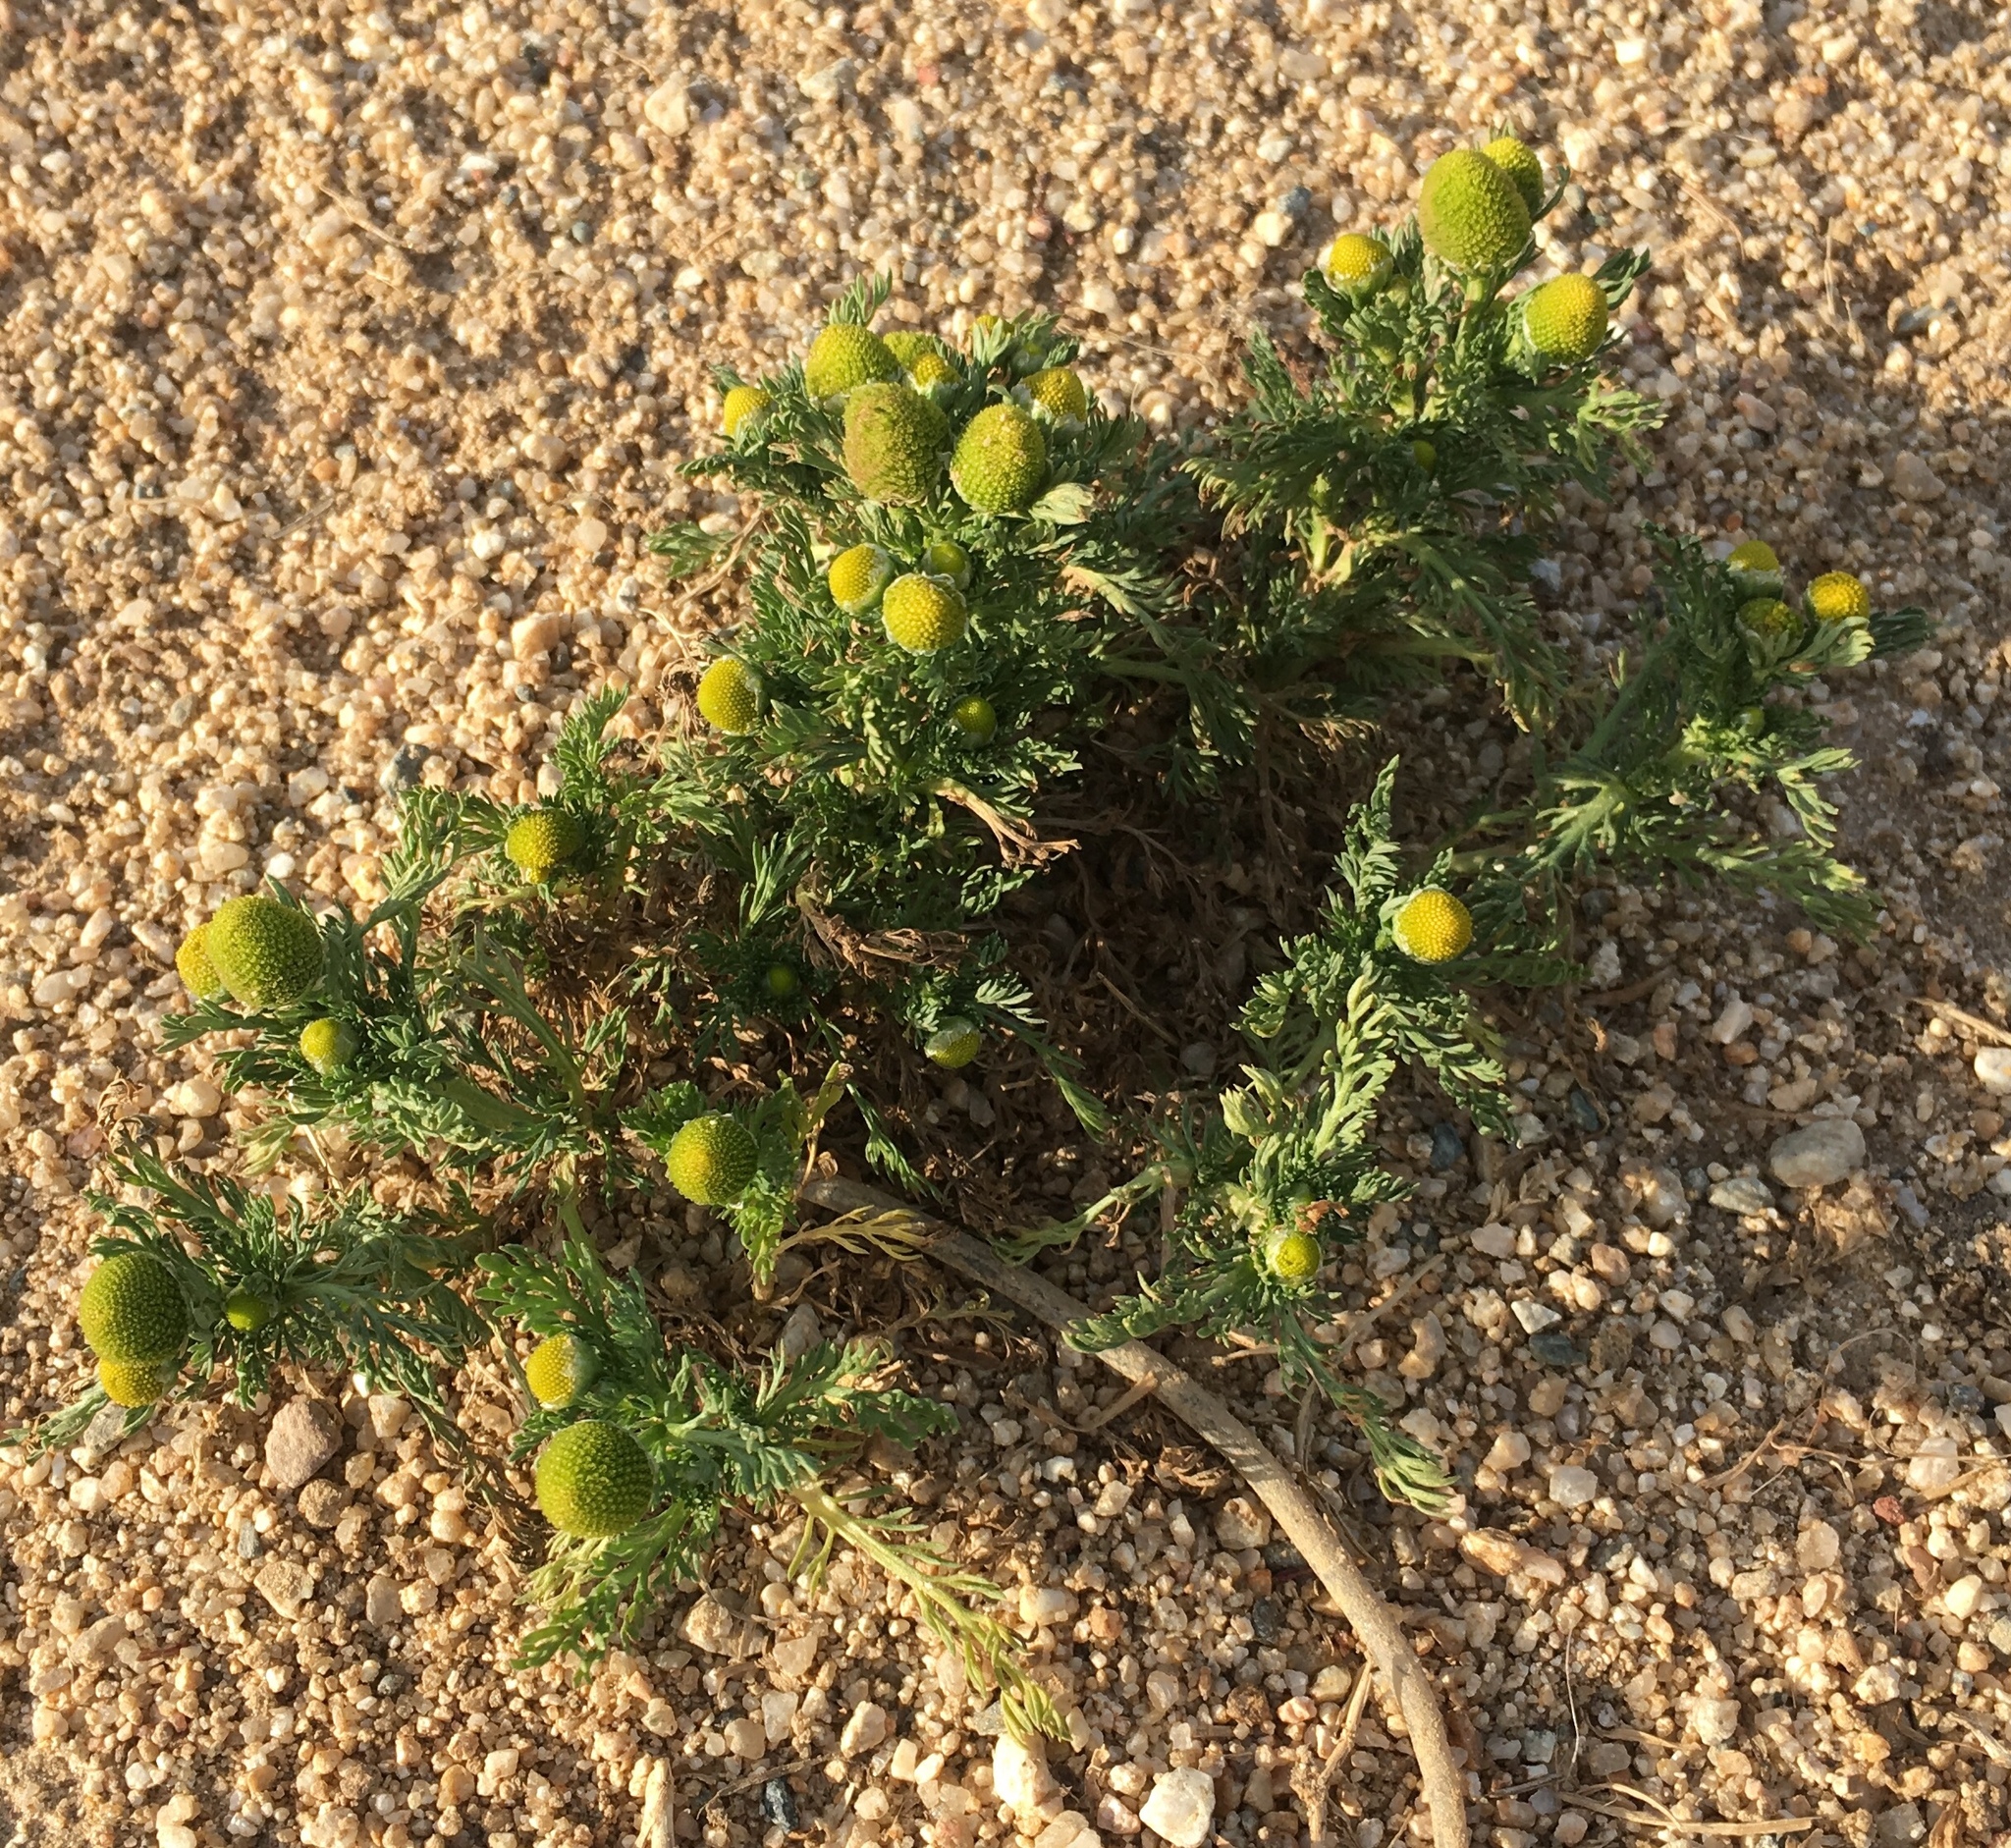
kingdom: Plantae
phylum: Tracheophyta
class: Magnoliopsida
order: Asterales
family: Asteraceae
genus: Matricaria
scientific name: Matricaria discoidea
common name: Disc mayweed
